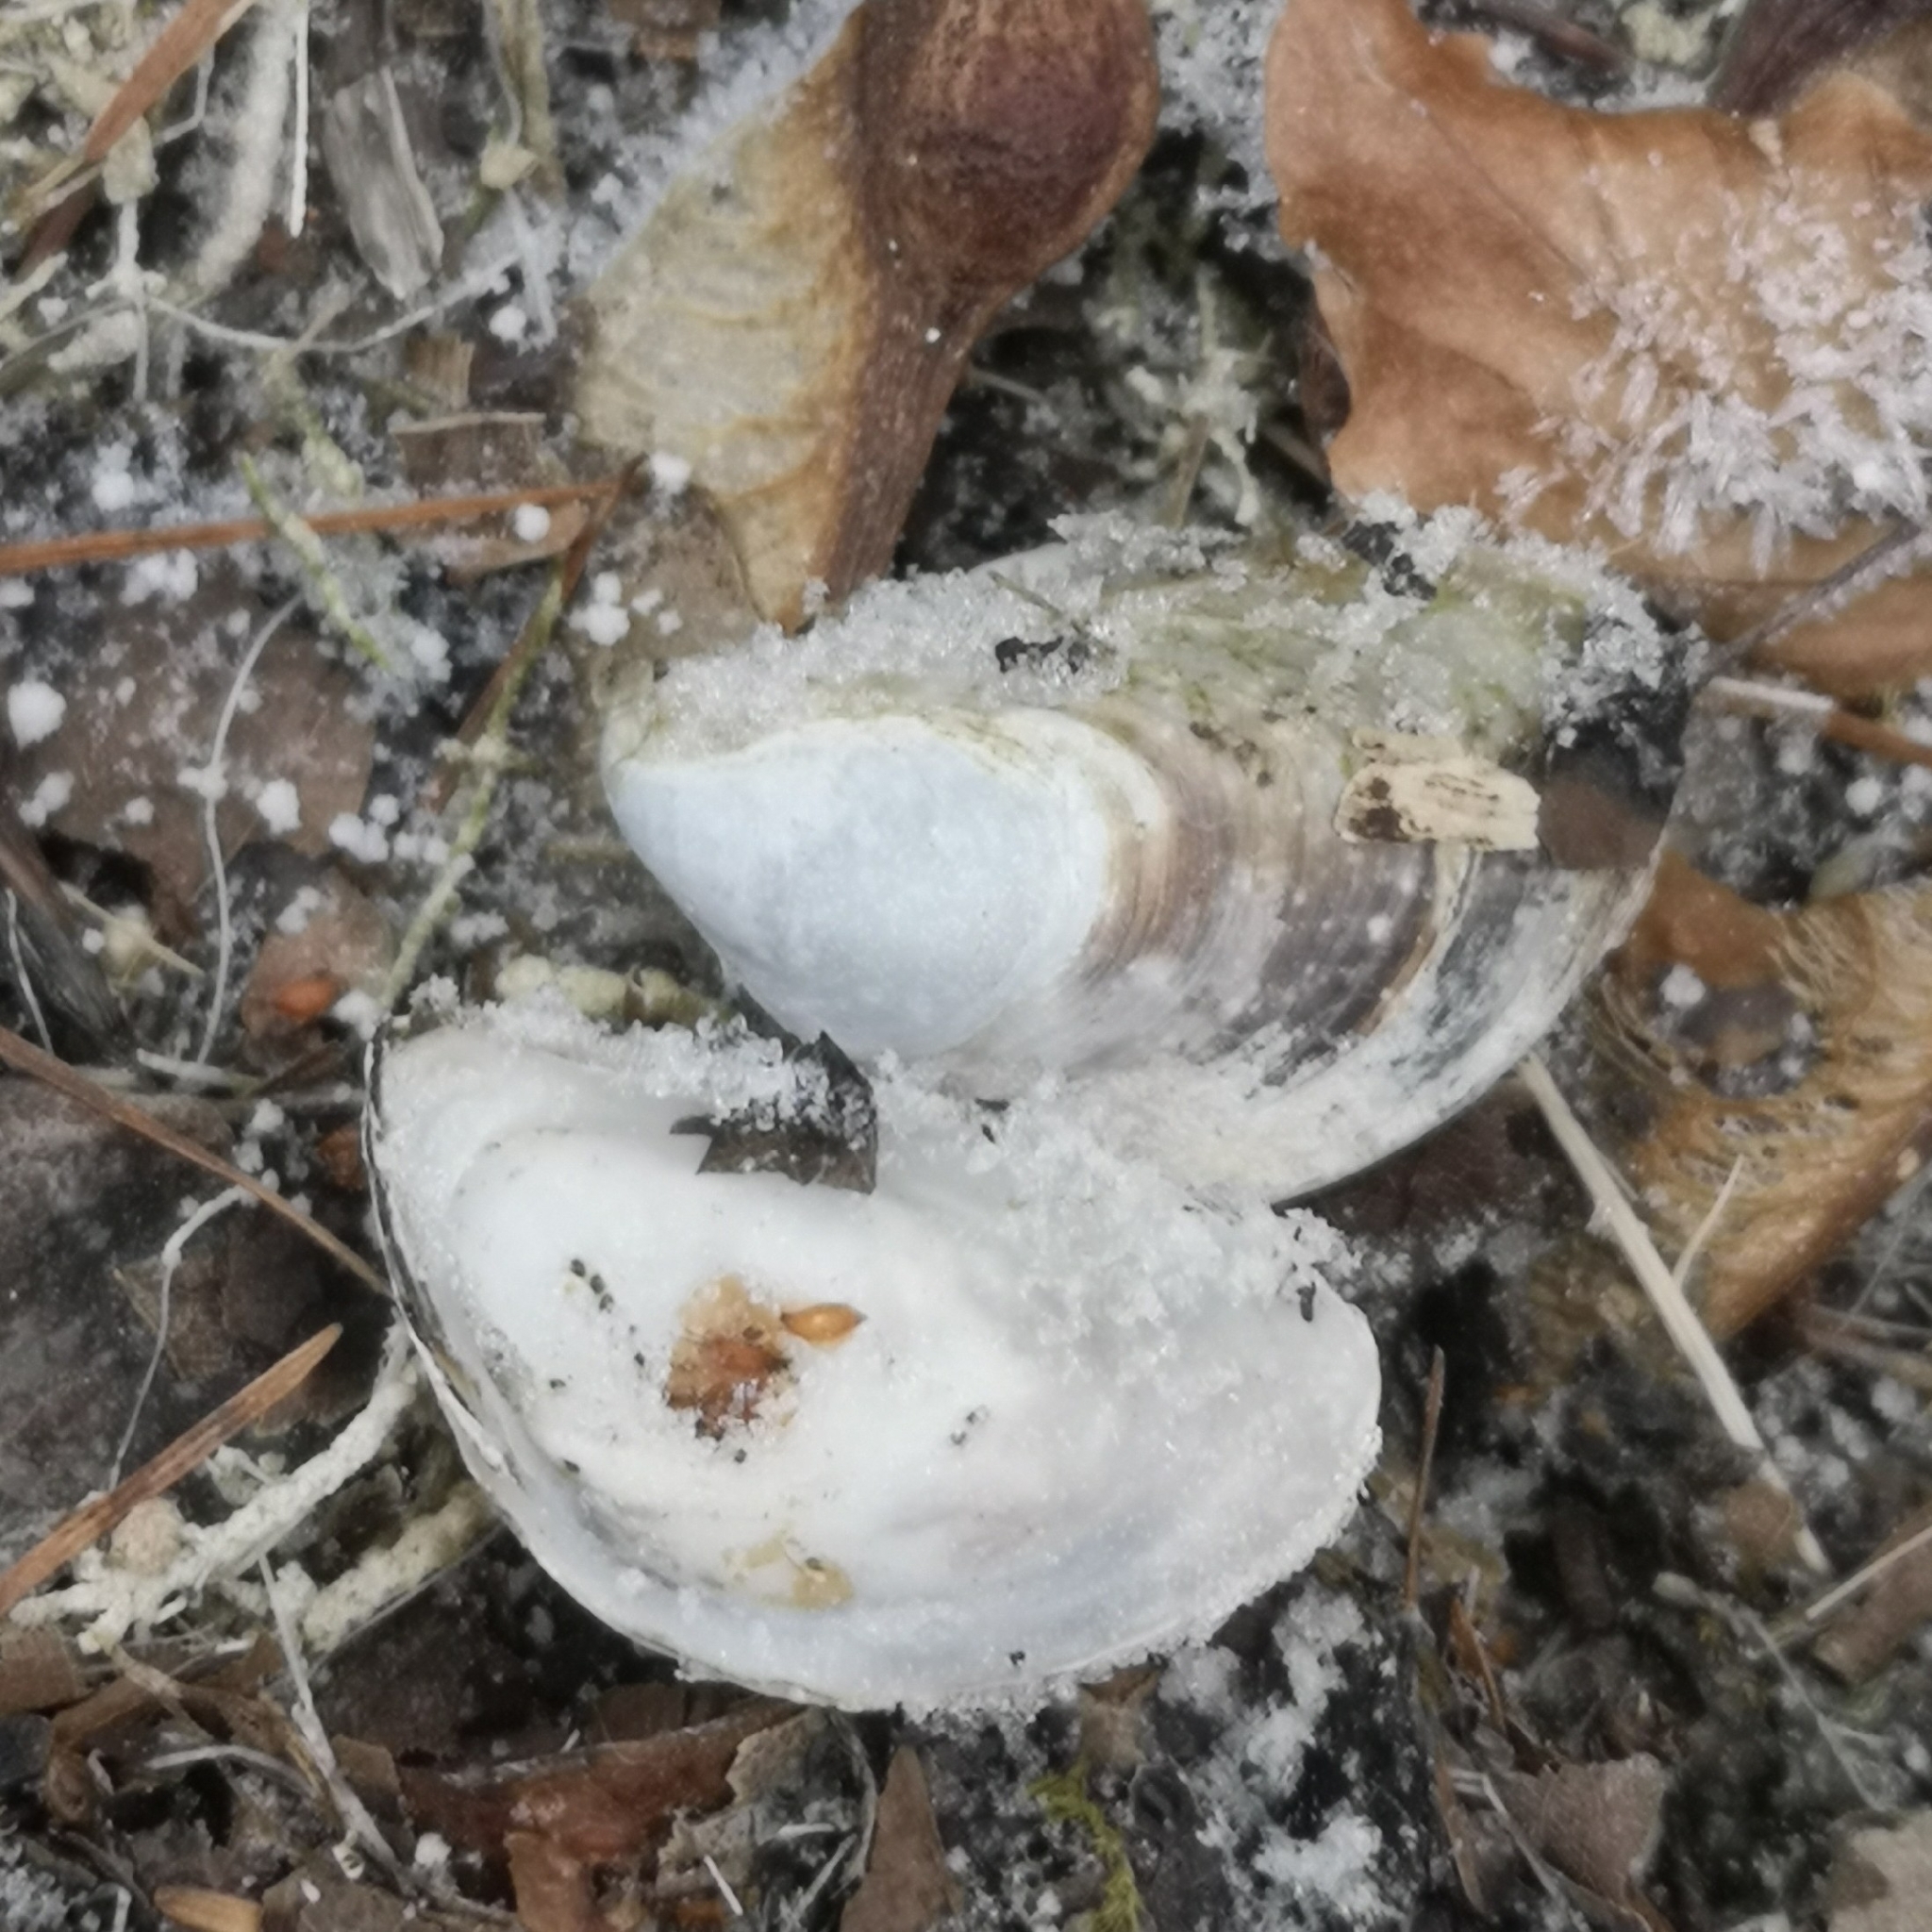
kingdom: Animalia
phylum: Mollusca
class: Bivalvia
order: Myida
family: Dreissenidae
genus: Dreissena
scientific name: Dreissena bugensis
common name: Quagga mussel
